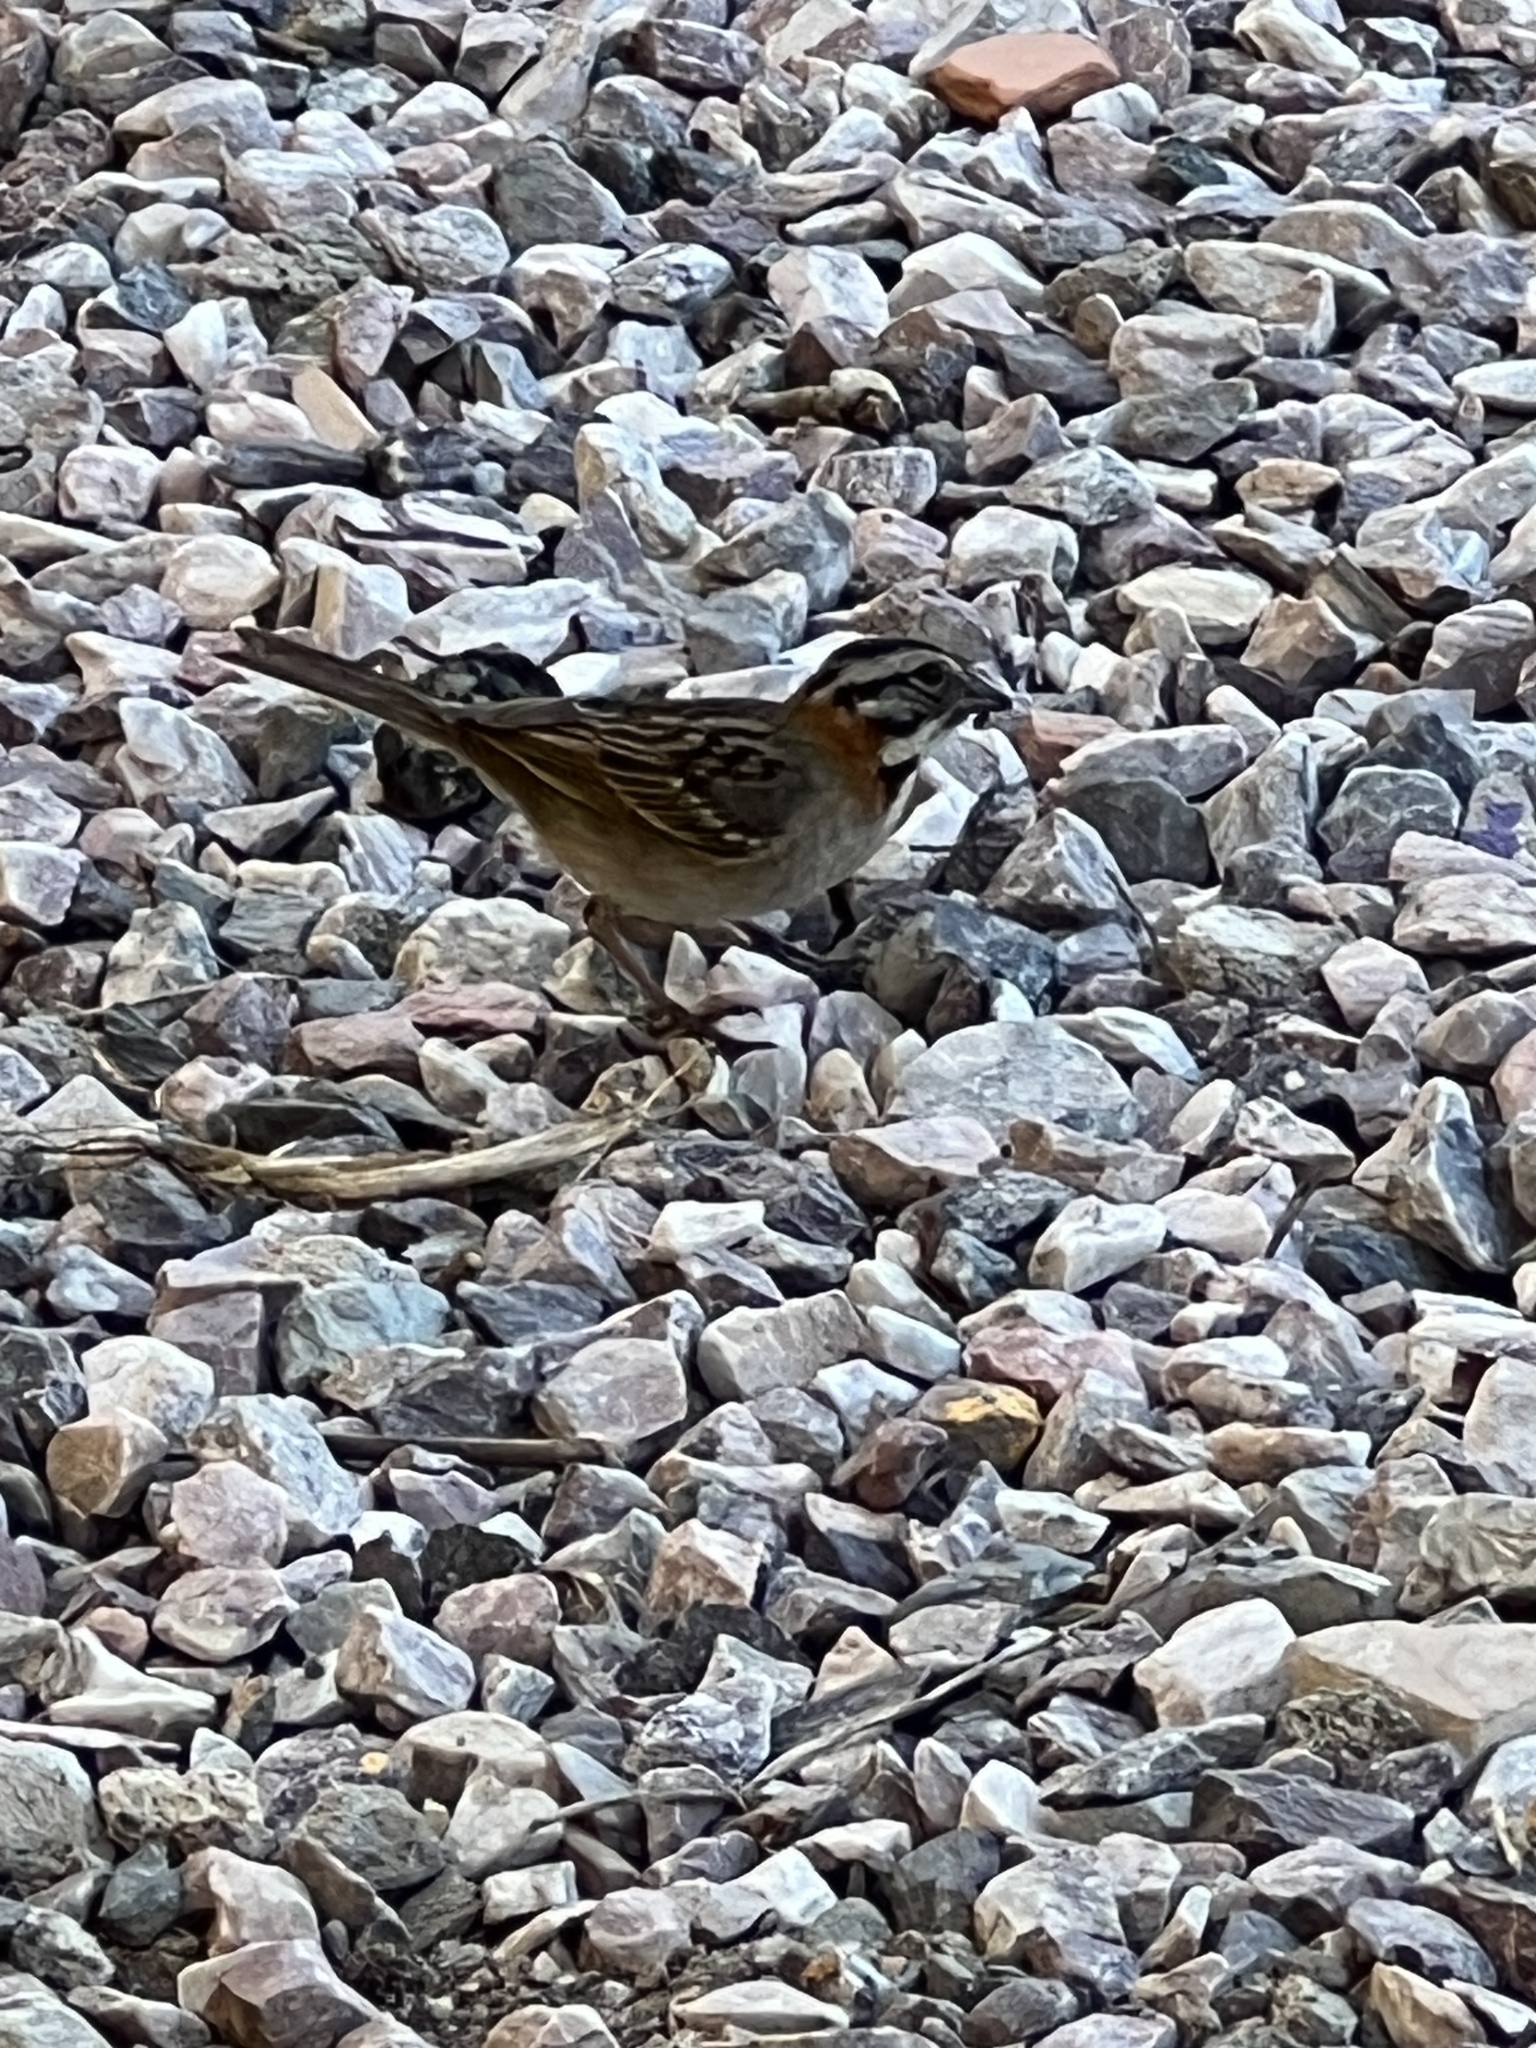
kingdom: Animalia
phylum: Chordata
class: Aves
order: Passeriformes
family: Passerellidae
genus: Zonotrichia
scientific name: Zonotrichia capensis
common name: Rufous-collared sparrow
